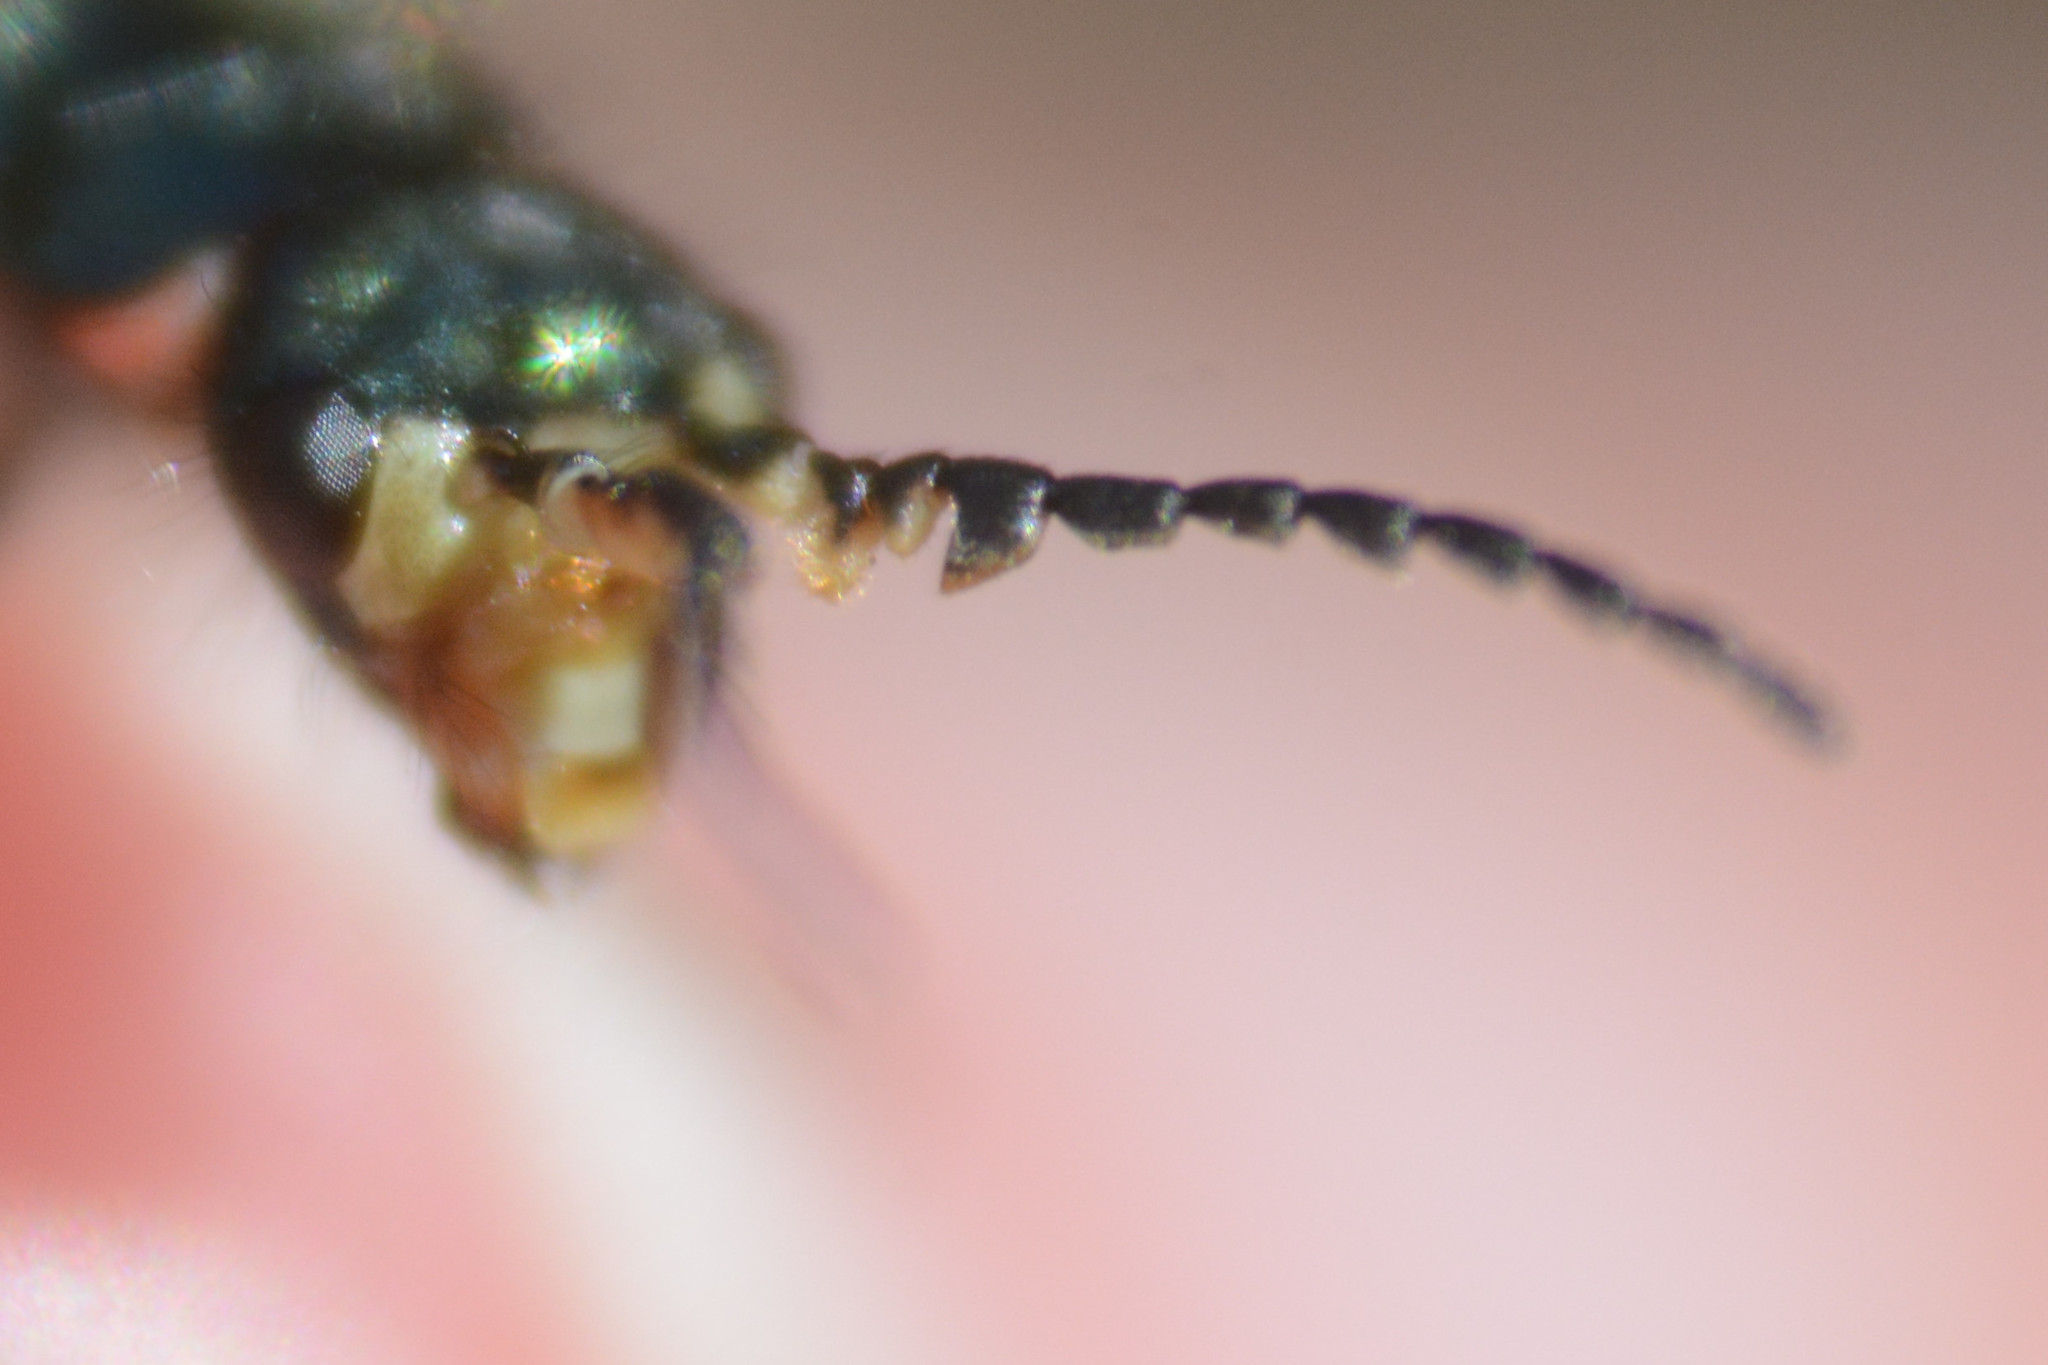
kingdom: Animalia
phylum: Arthropoda
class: Insecta
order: Coleoptera
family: Melyridae
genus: Malachius
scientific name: Malachius bipustulatus
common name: Malachite beetle
